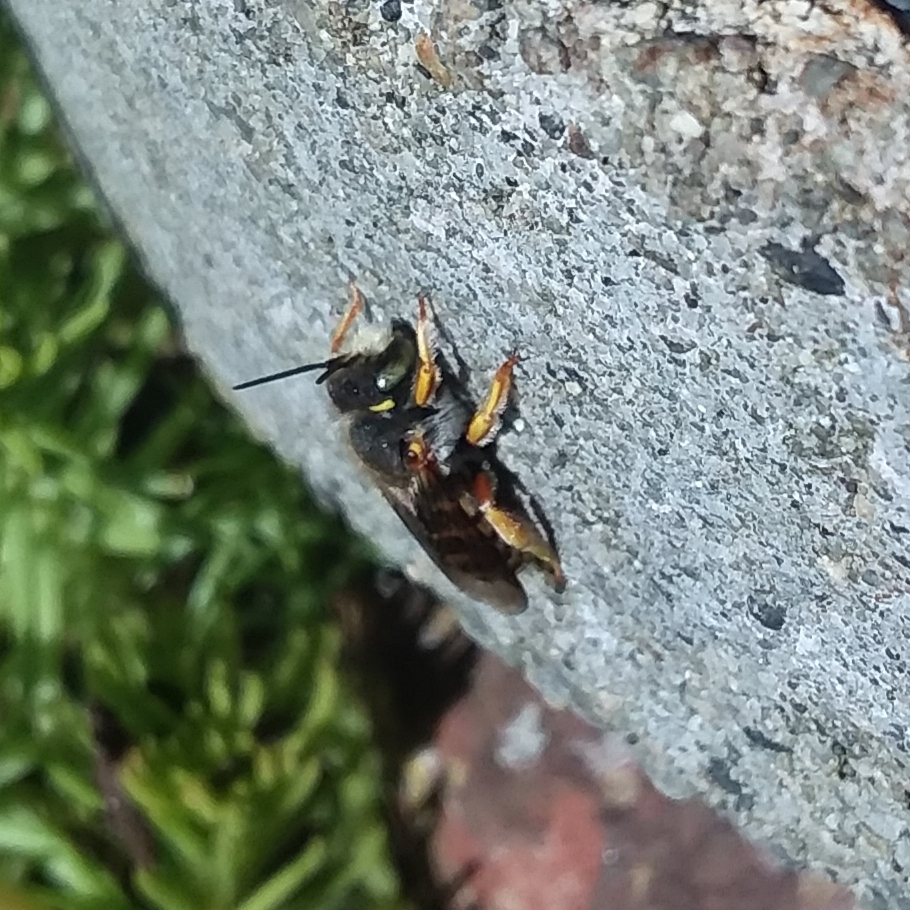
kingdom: Animalia
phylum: Arthropoda
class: Insecta
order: Hymenoptera
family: Megachilidae
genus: Anthidium
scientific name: Anthidium oblongatum
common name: Oblong wool carder bee
